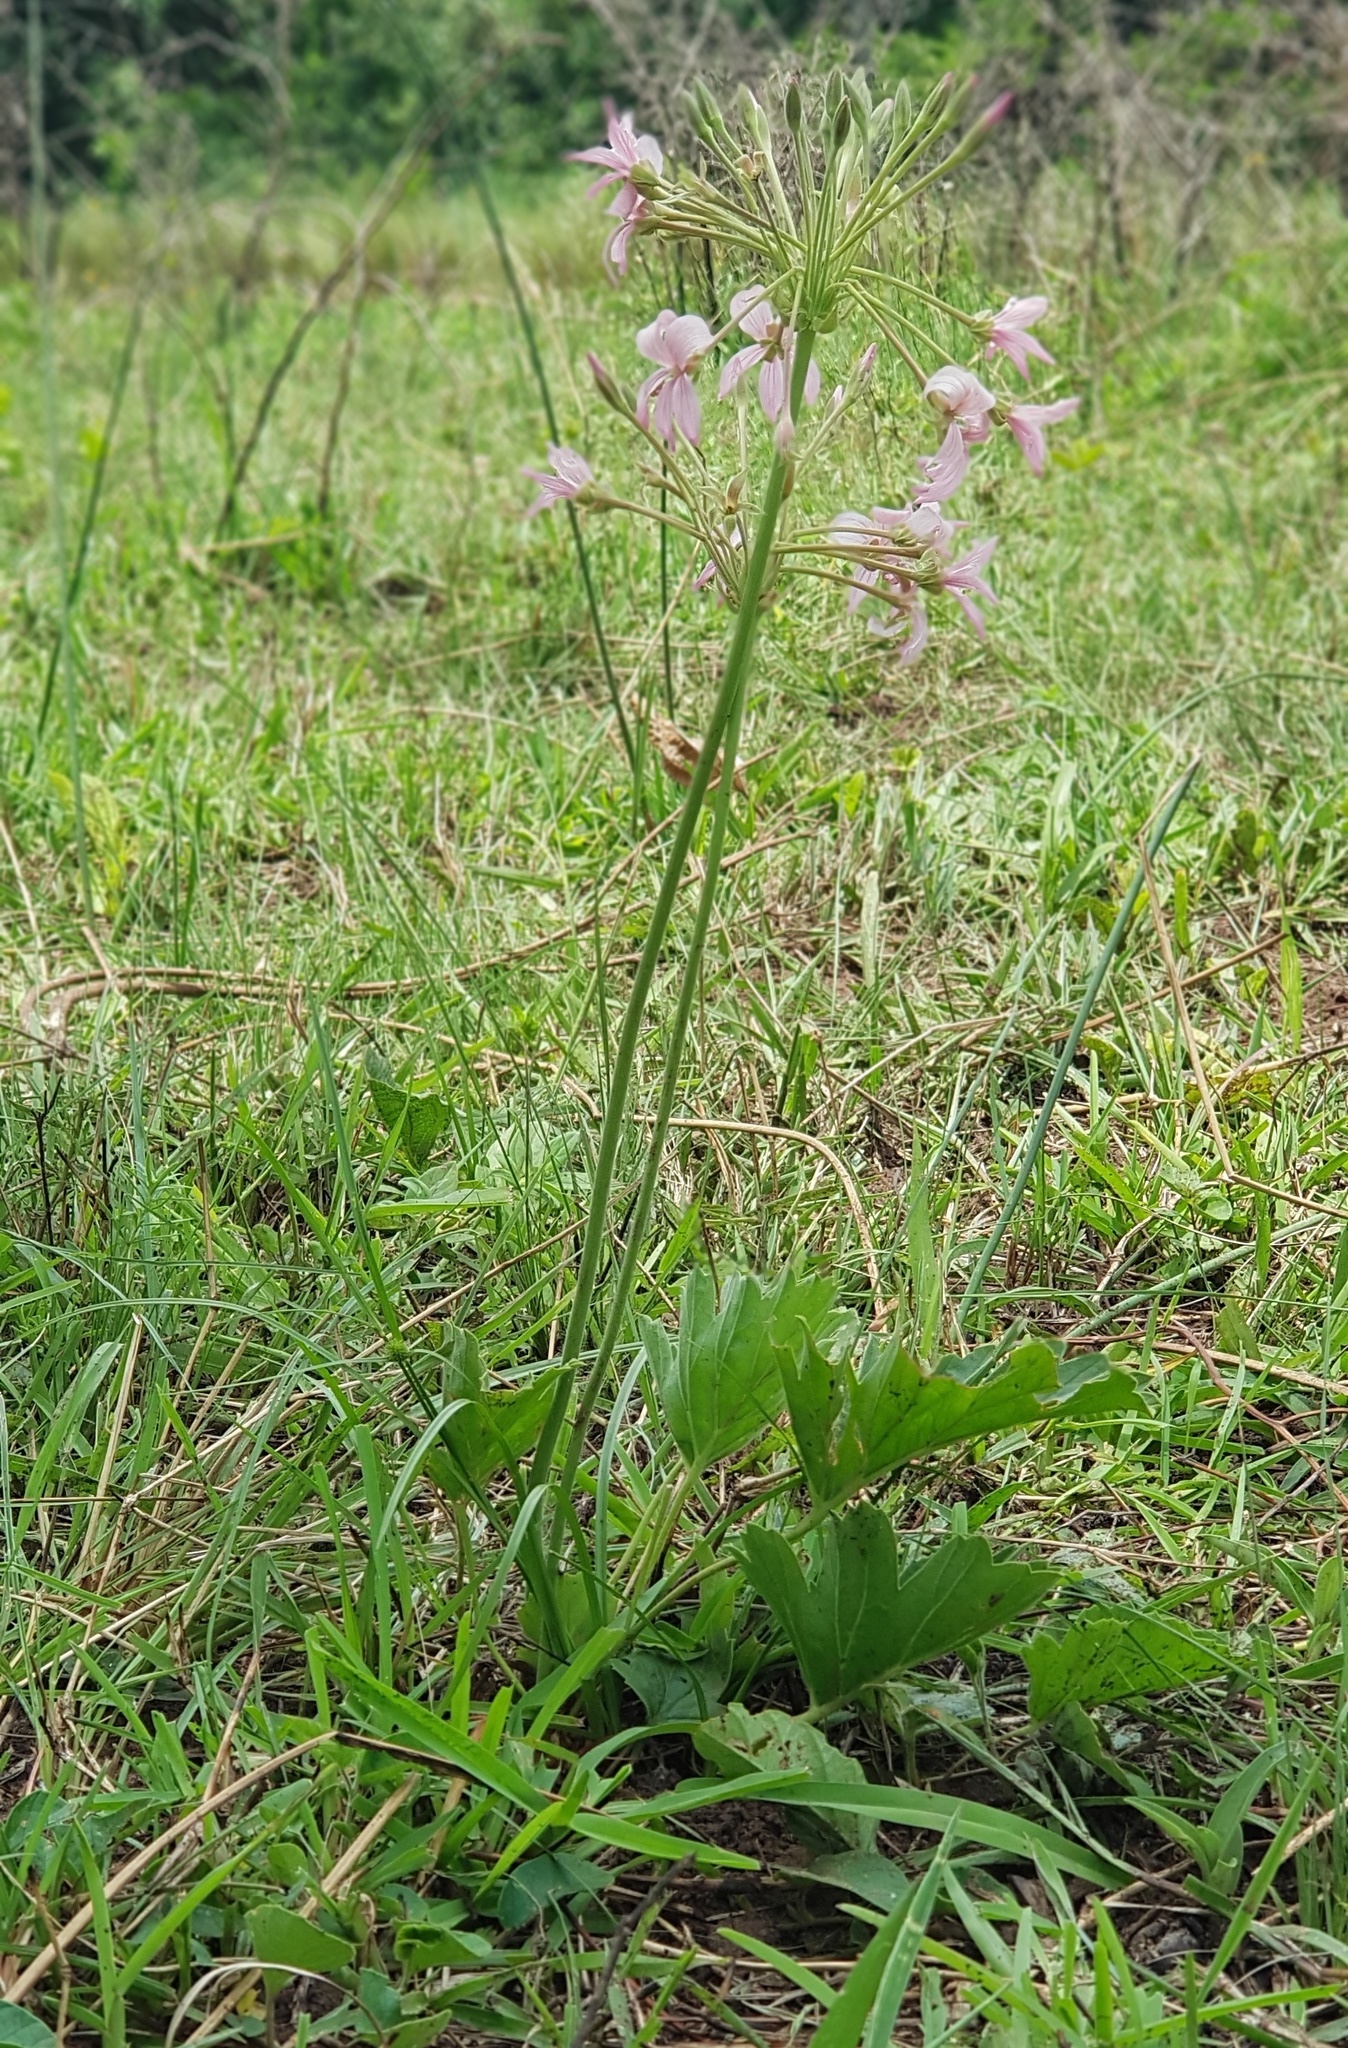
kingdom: Plantae
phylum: Tracheophyta
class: Magnoliopsida
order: Geraniales
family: Geraniaceae
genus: Pelargonium
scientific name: Pelargonium luridum
